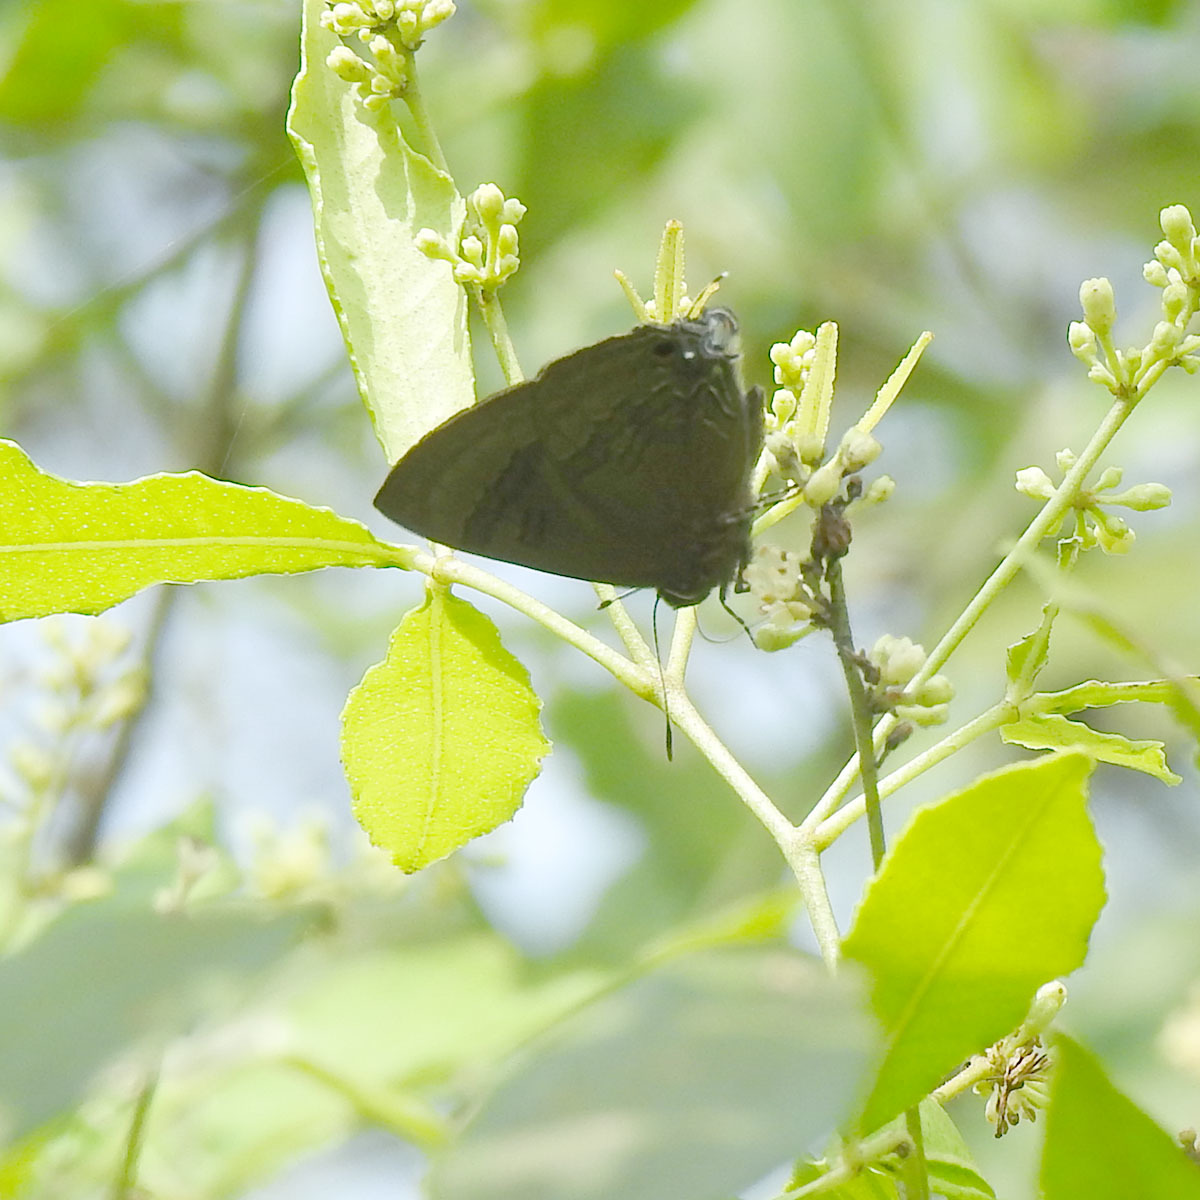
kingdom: Animalia
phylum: Arthropoda
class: Insecta
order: Lepidoptera
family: Lycaenidae
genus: Rapala
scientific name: Rapala varuna
